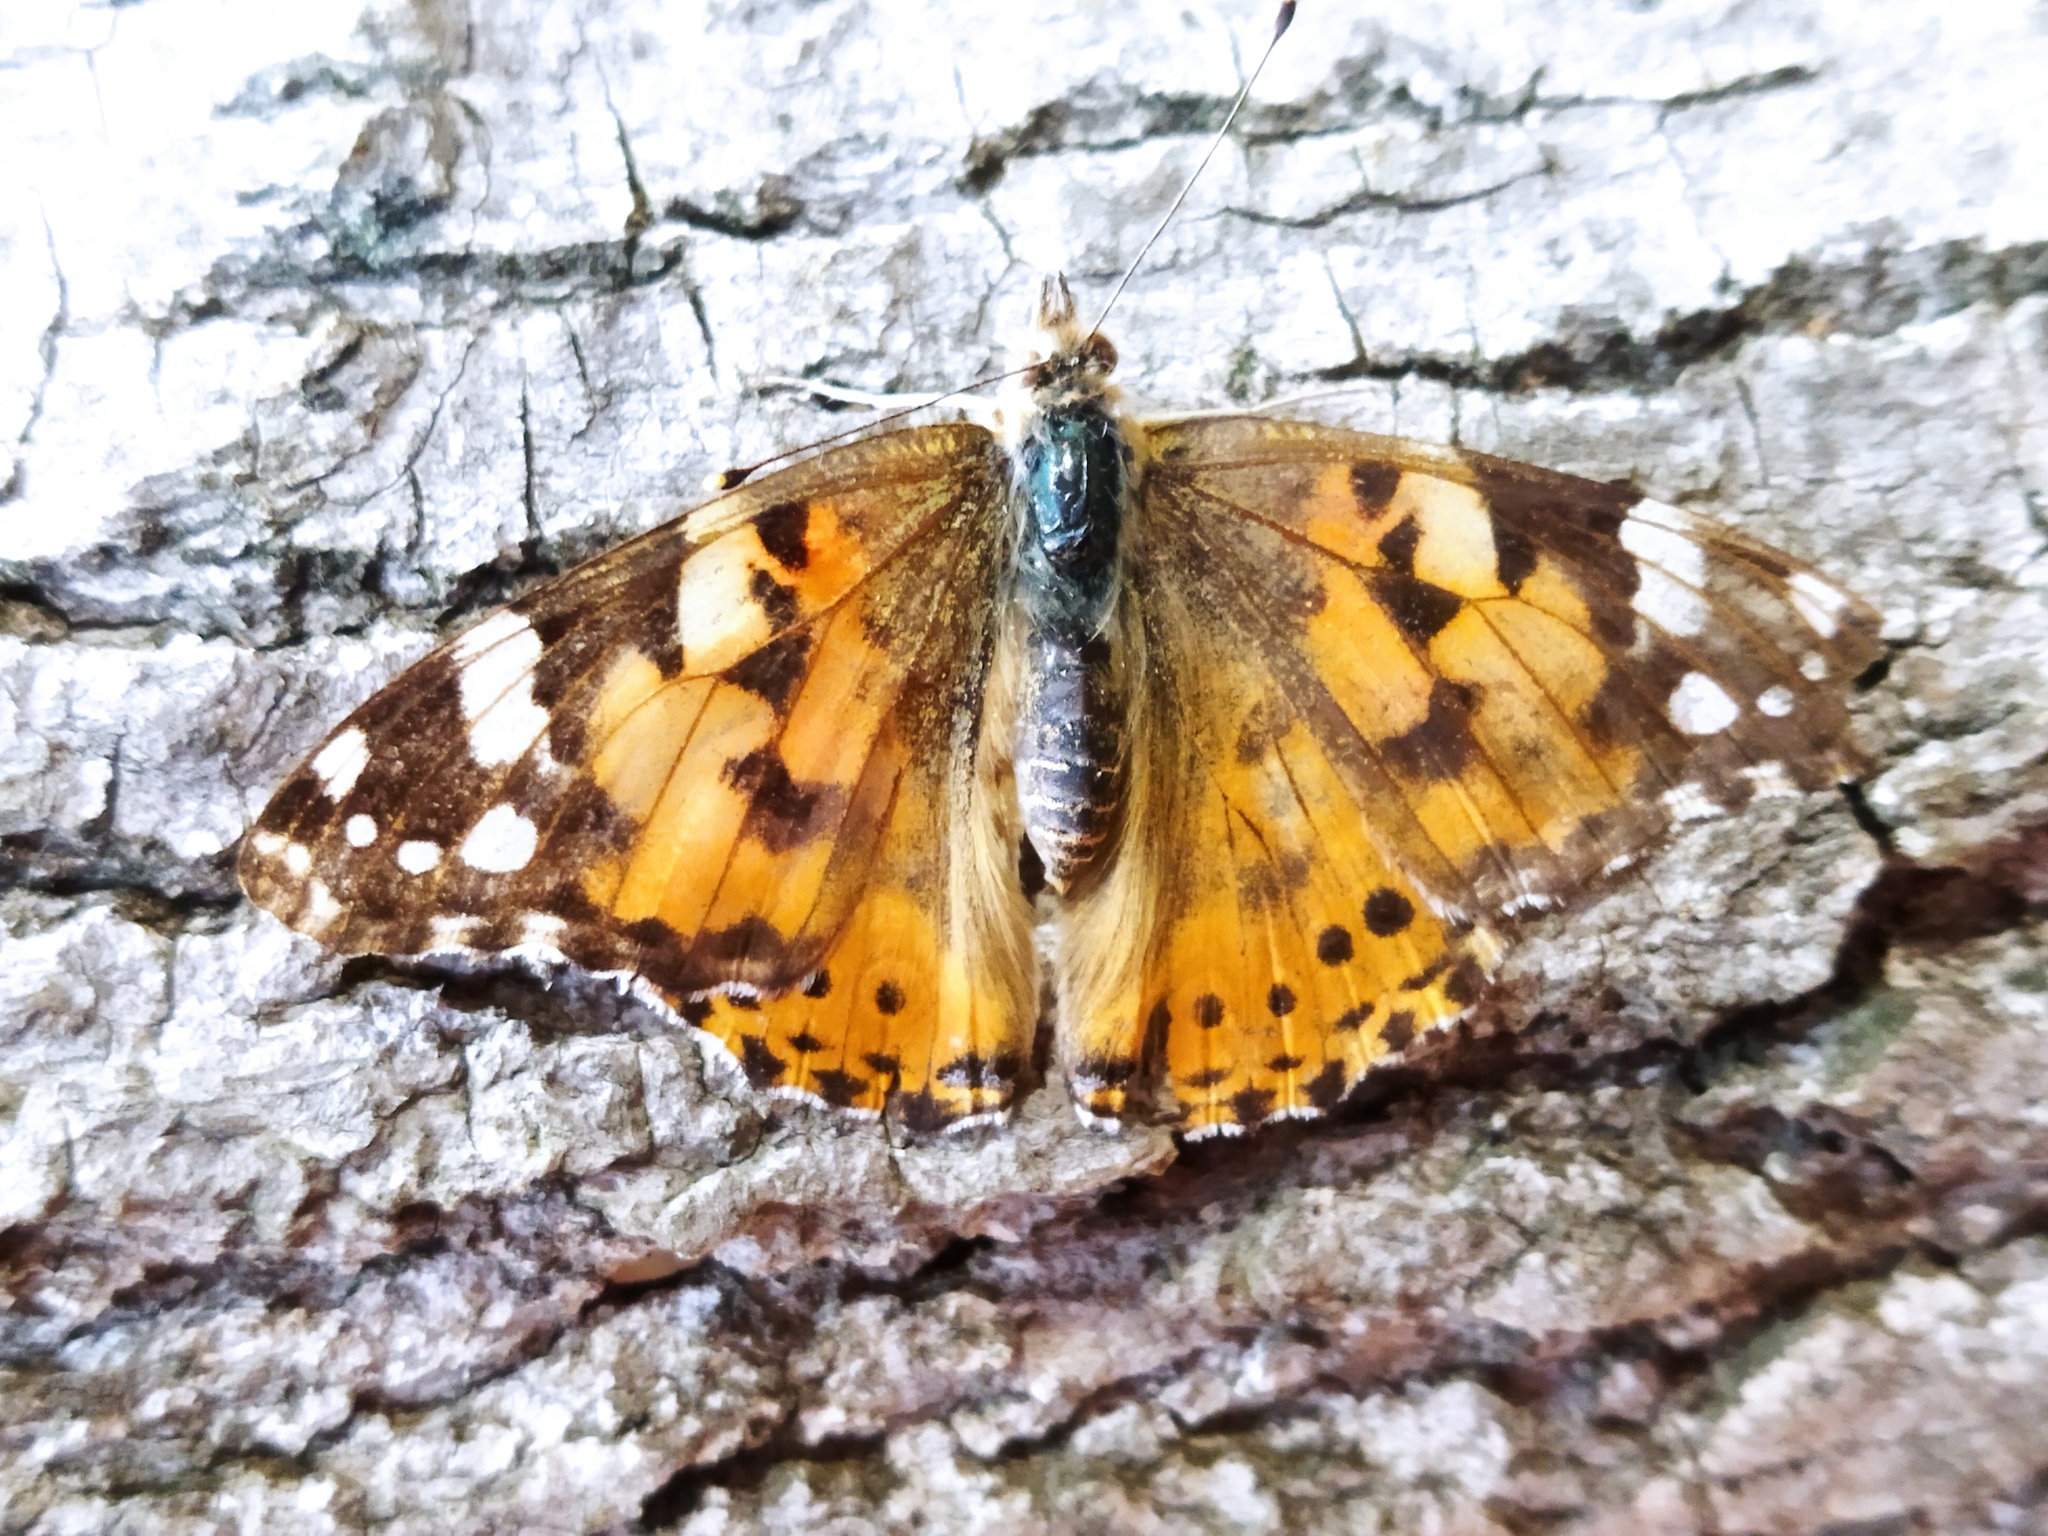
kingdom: Animalia
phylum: Arthropoda
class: Insecta
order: Lepidoptera
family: Nymphalidae
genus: Vanessa
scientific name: Vanessa cardui
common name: Painted lady
